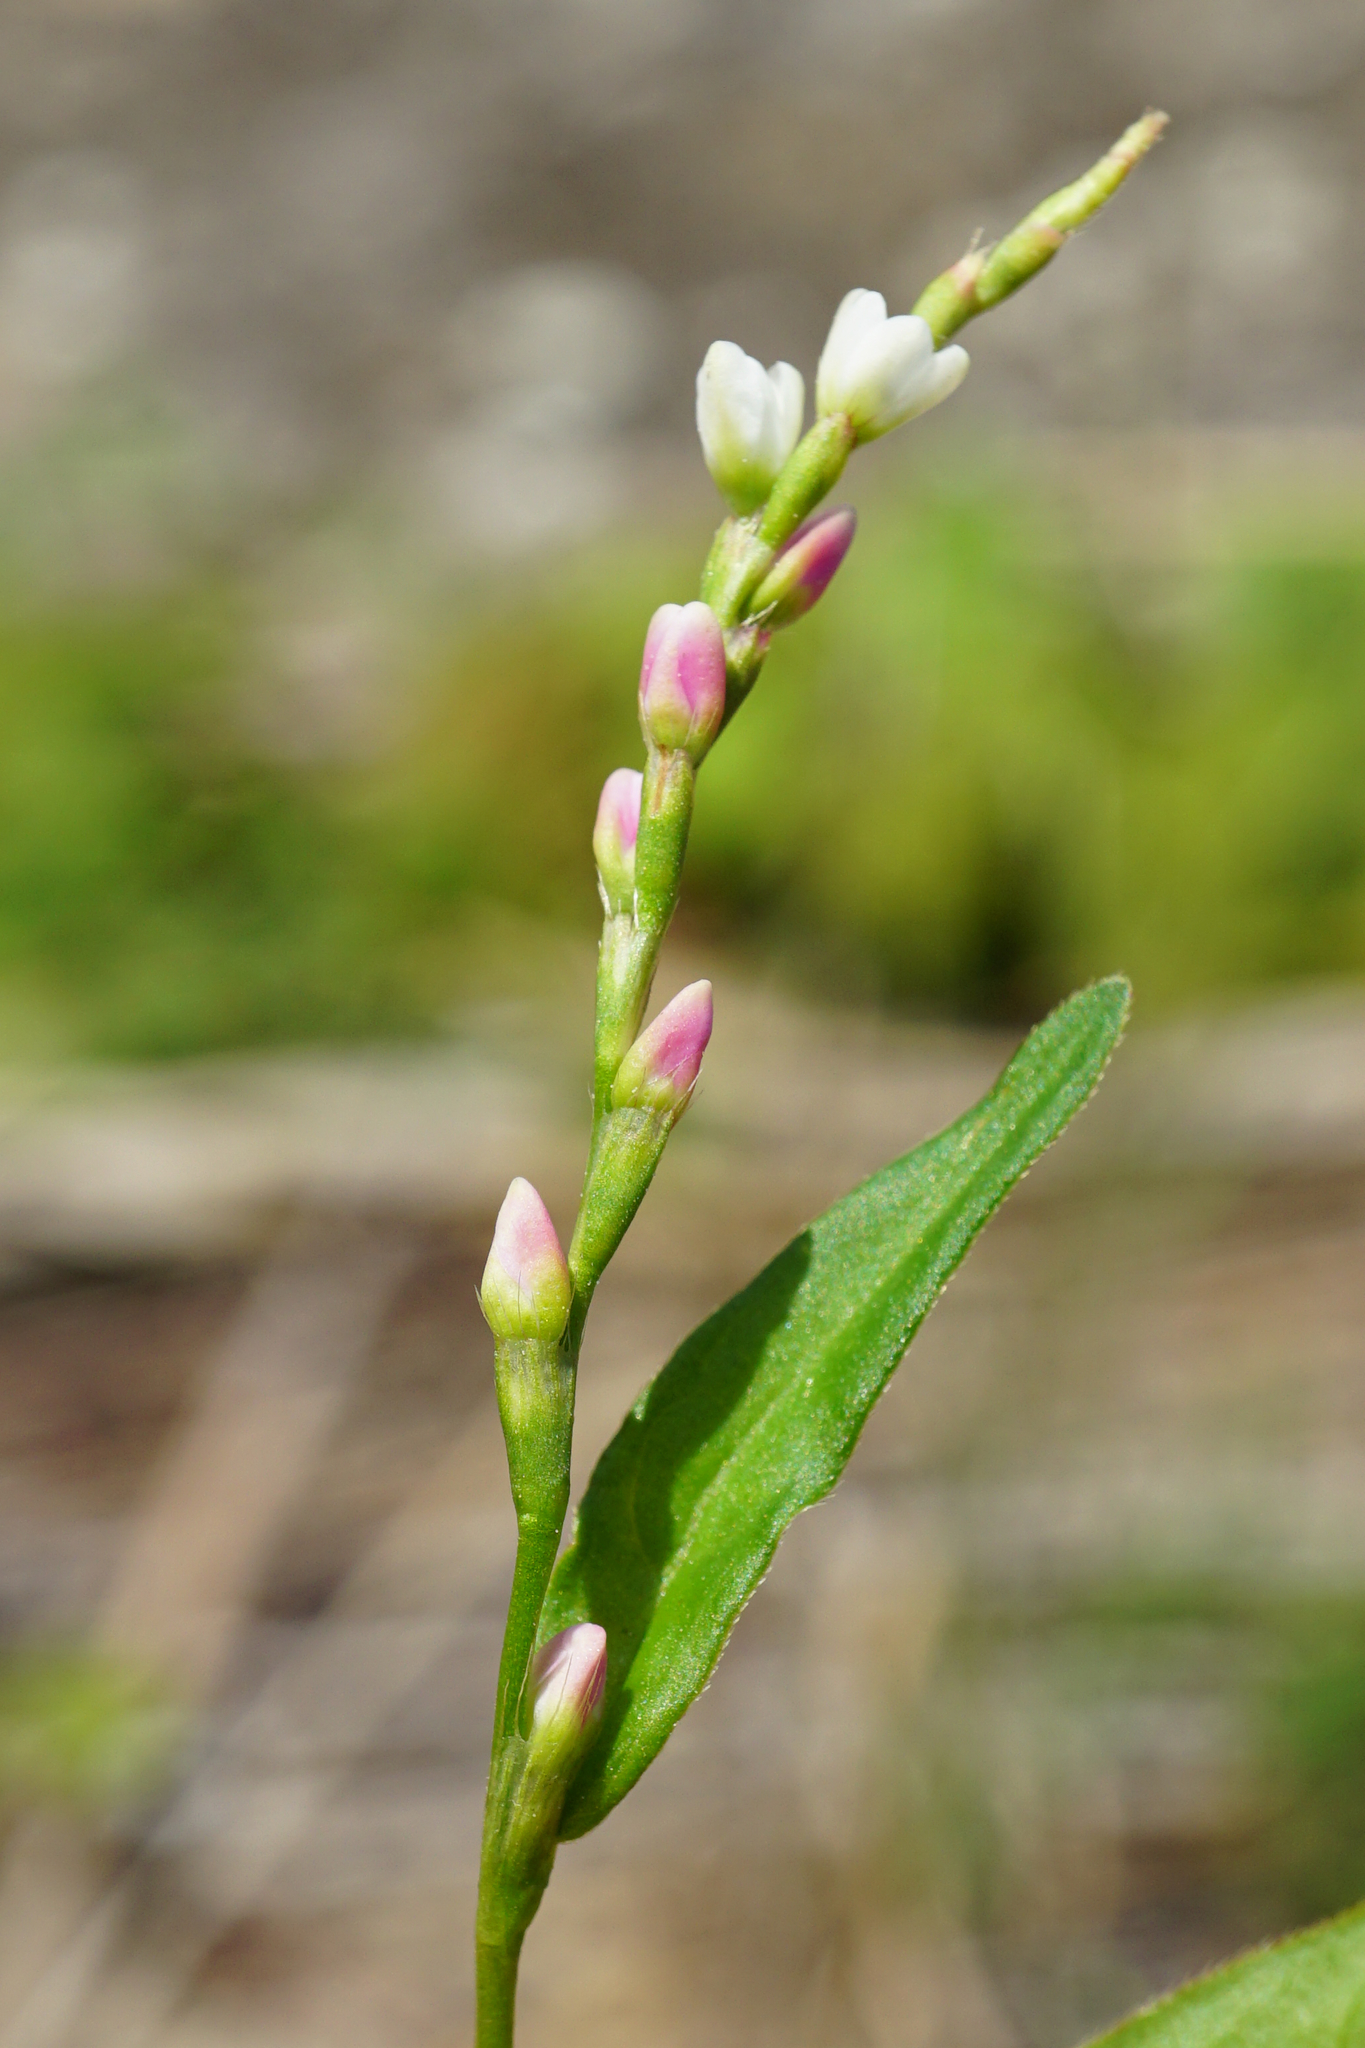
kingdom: Plantae
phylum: Tracheophyta
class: Magnoliopsida
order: Caryophyllales
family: Polygonaceae
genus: Persicaria
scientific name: Persicaria mitis
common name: Tasteless water-pepper
